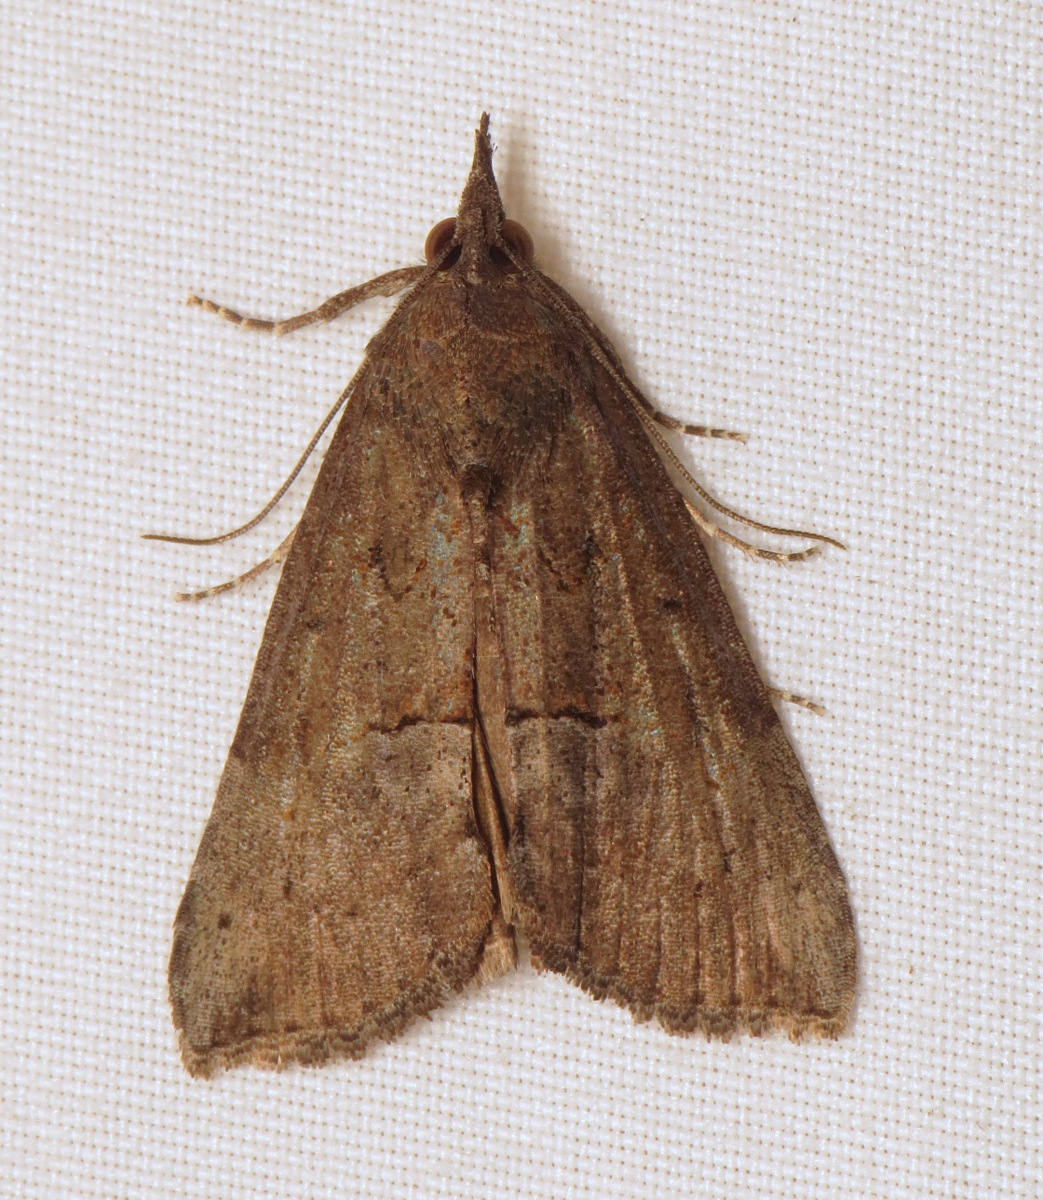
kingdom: Animalia
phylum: Arthropoda
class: Insecta
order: Lepidoptera
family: Erebidae
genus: Hypena
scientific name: Hypena scabra
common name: Green cloverworm
